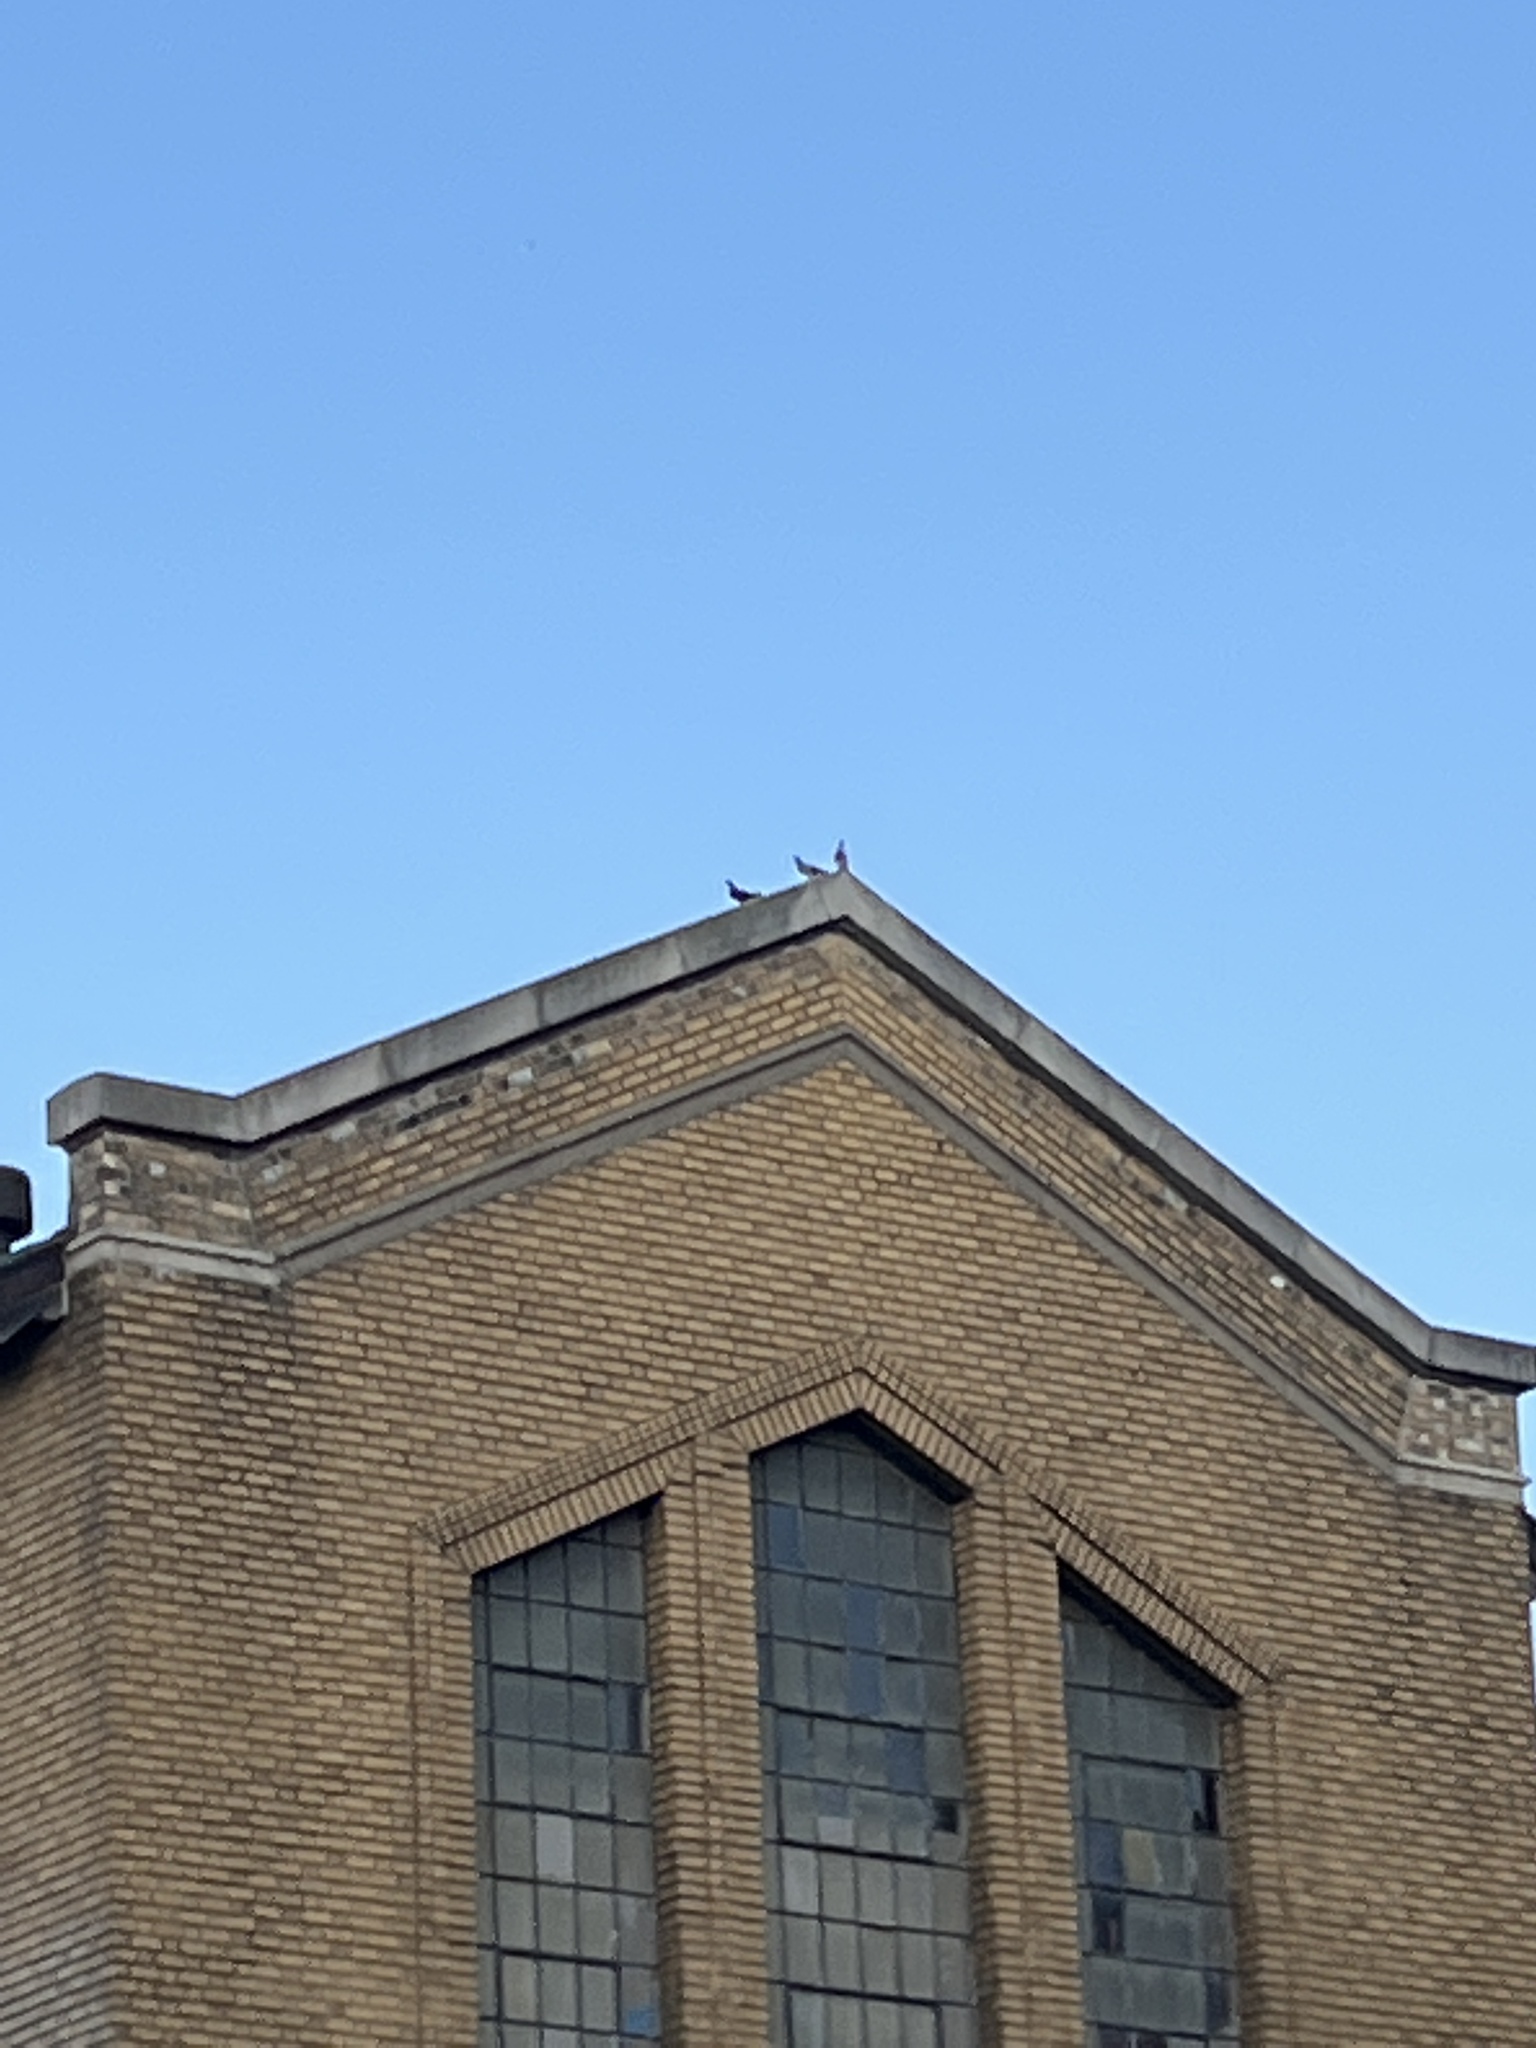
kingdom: Animalia
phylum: Chordata
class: Aves
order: Columbiformes
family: Columbidae
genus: Columba
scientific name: Columba livia
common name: Rock pigeon
